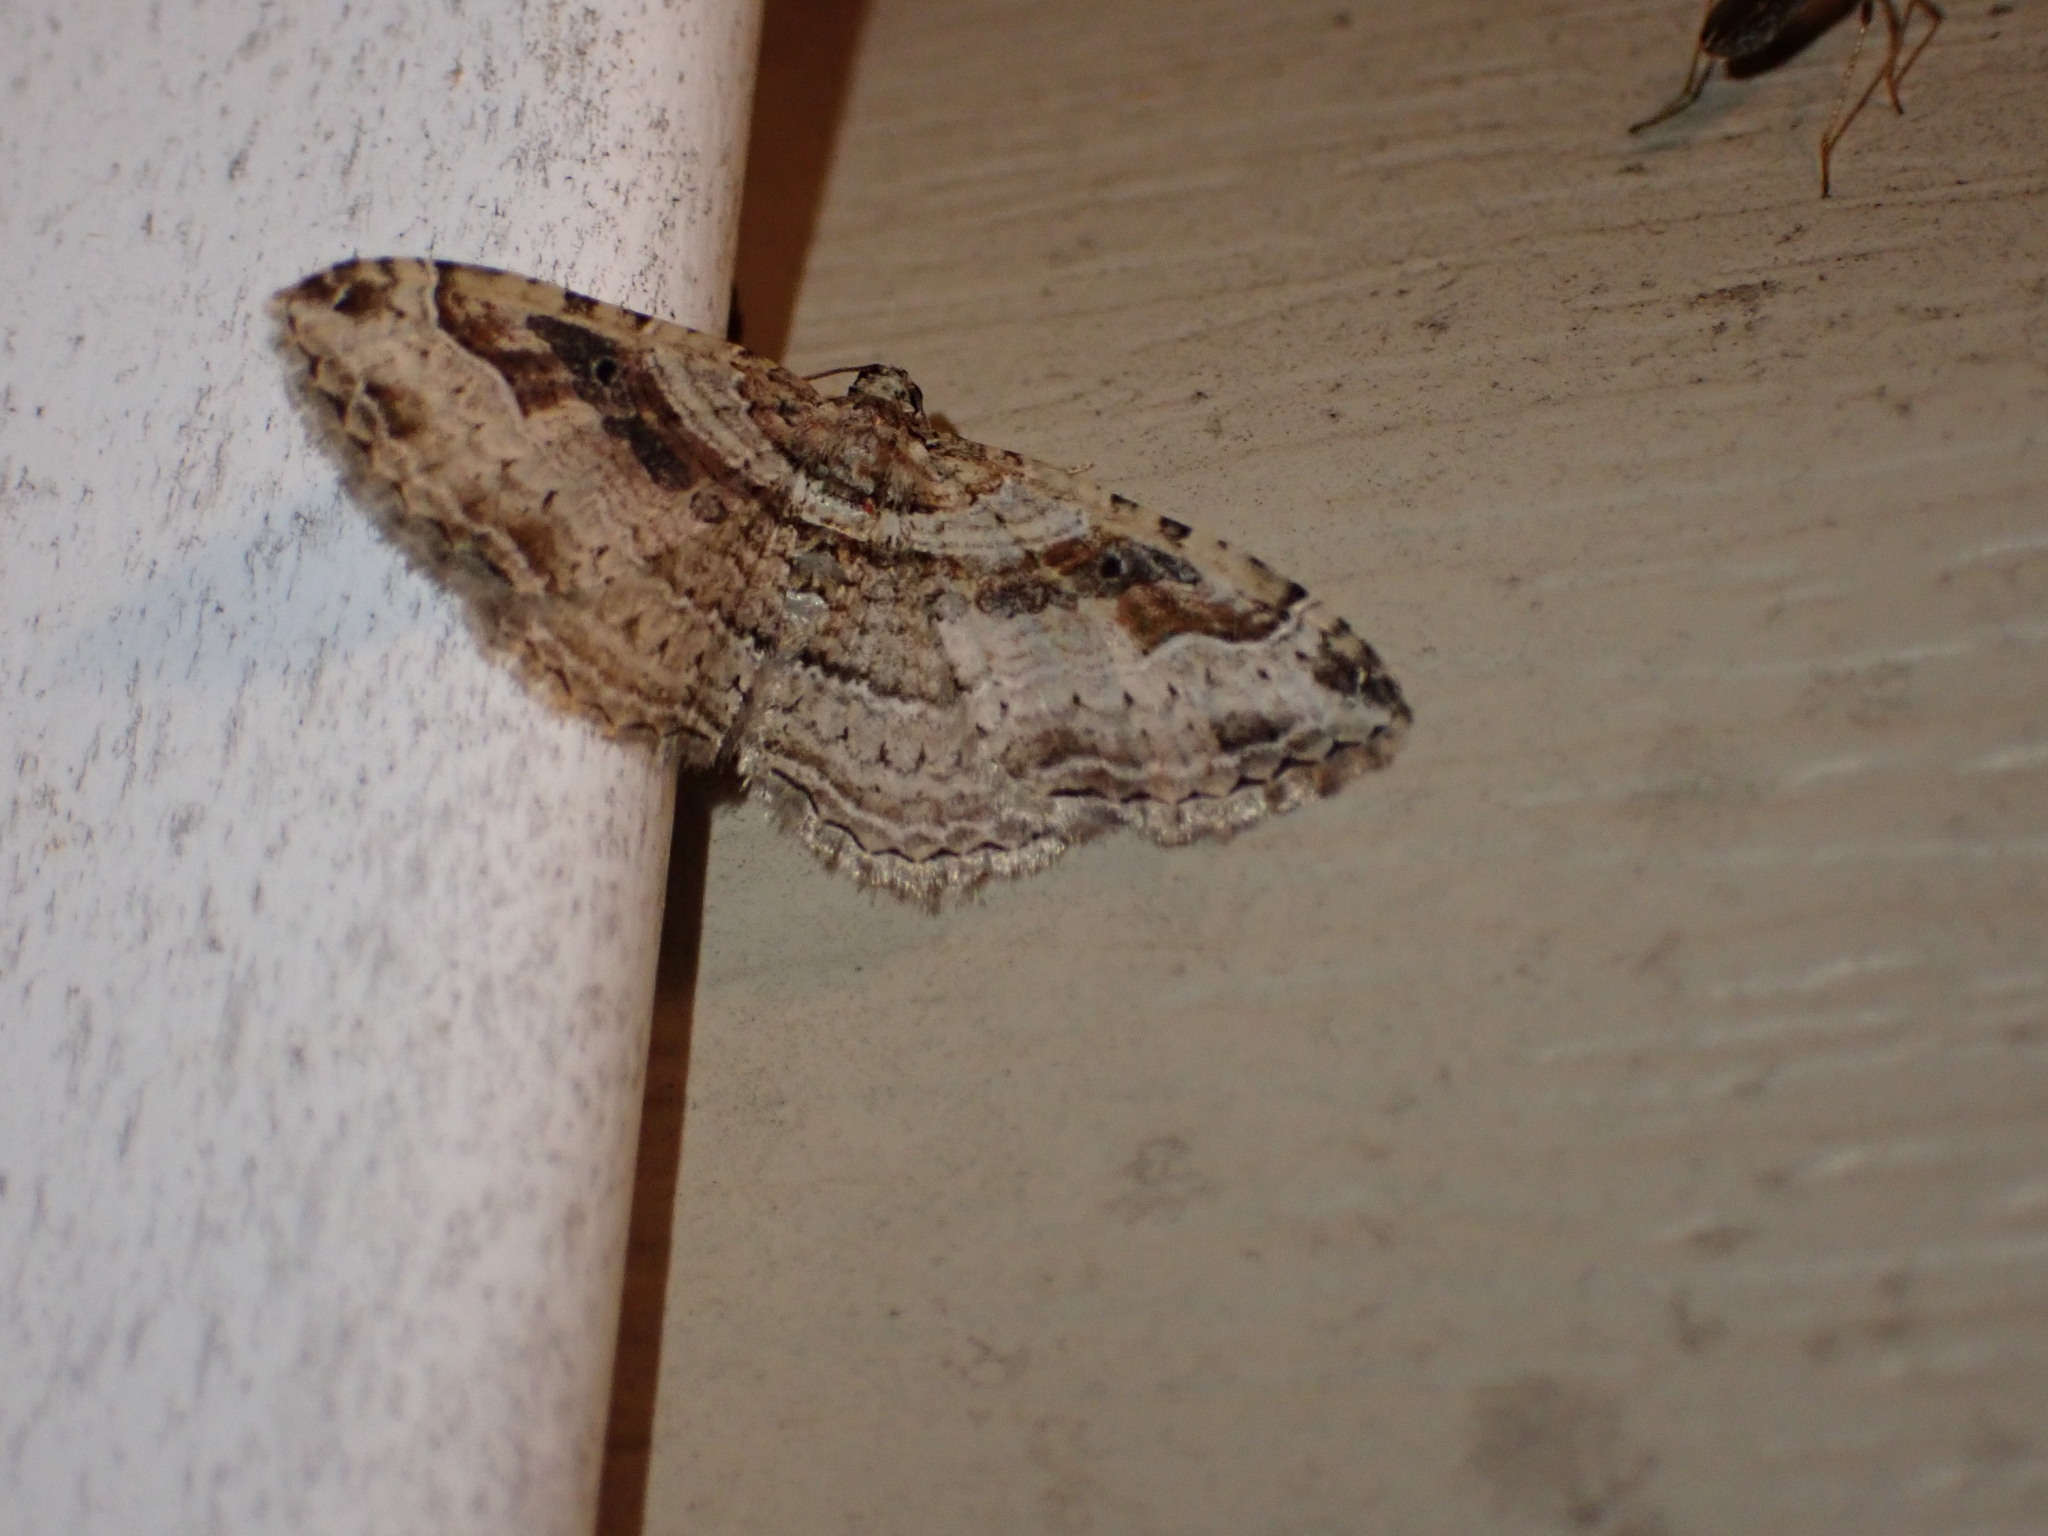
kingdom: Animalia
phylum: Arthropoda
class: Insecta
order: Lepidoptera
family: Geometridae
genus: Costaconvexa
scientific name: Costaconvexa centrostrigaria
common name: Bent-line carpet
